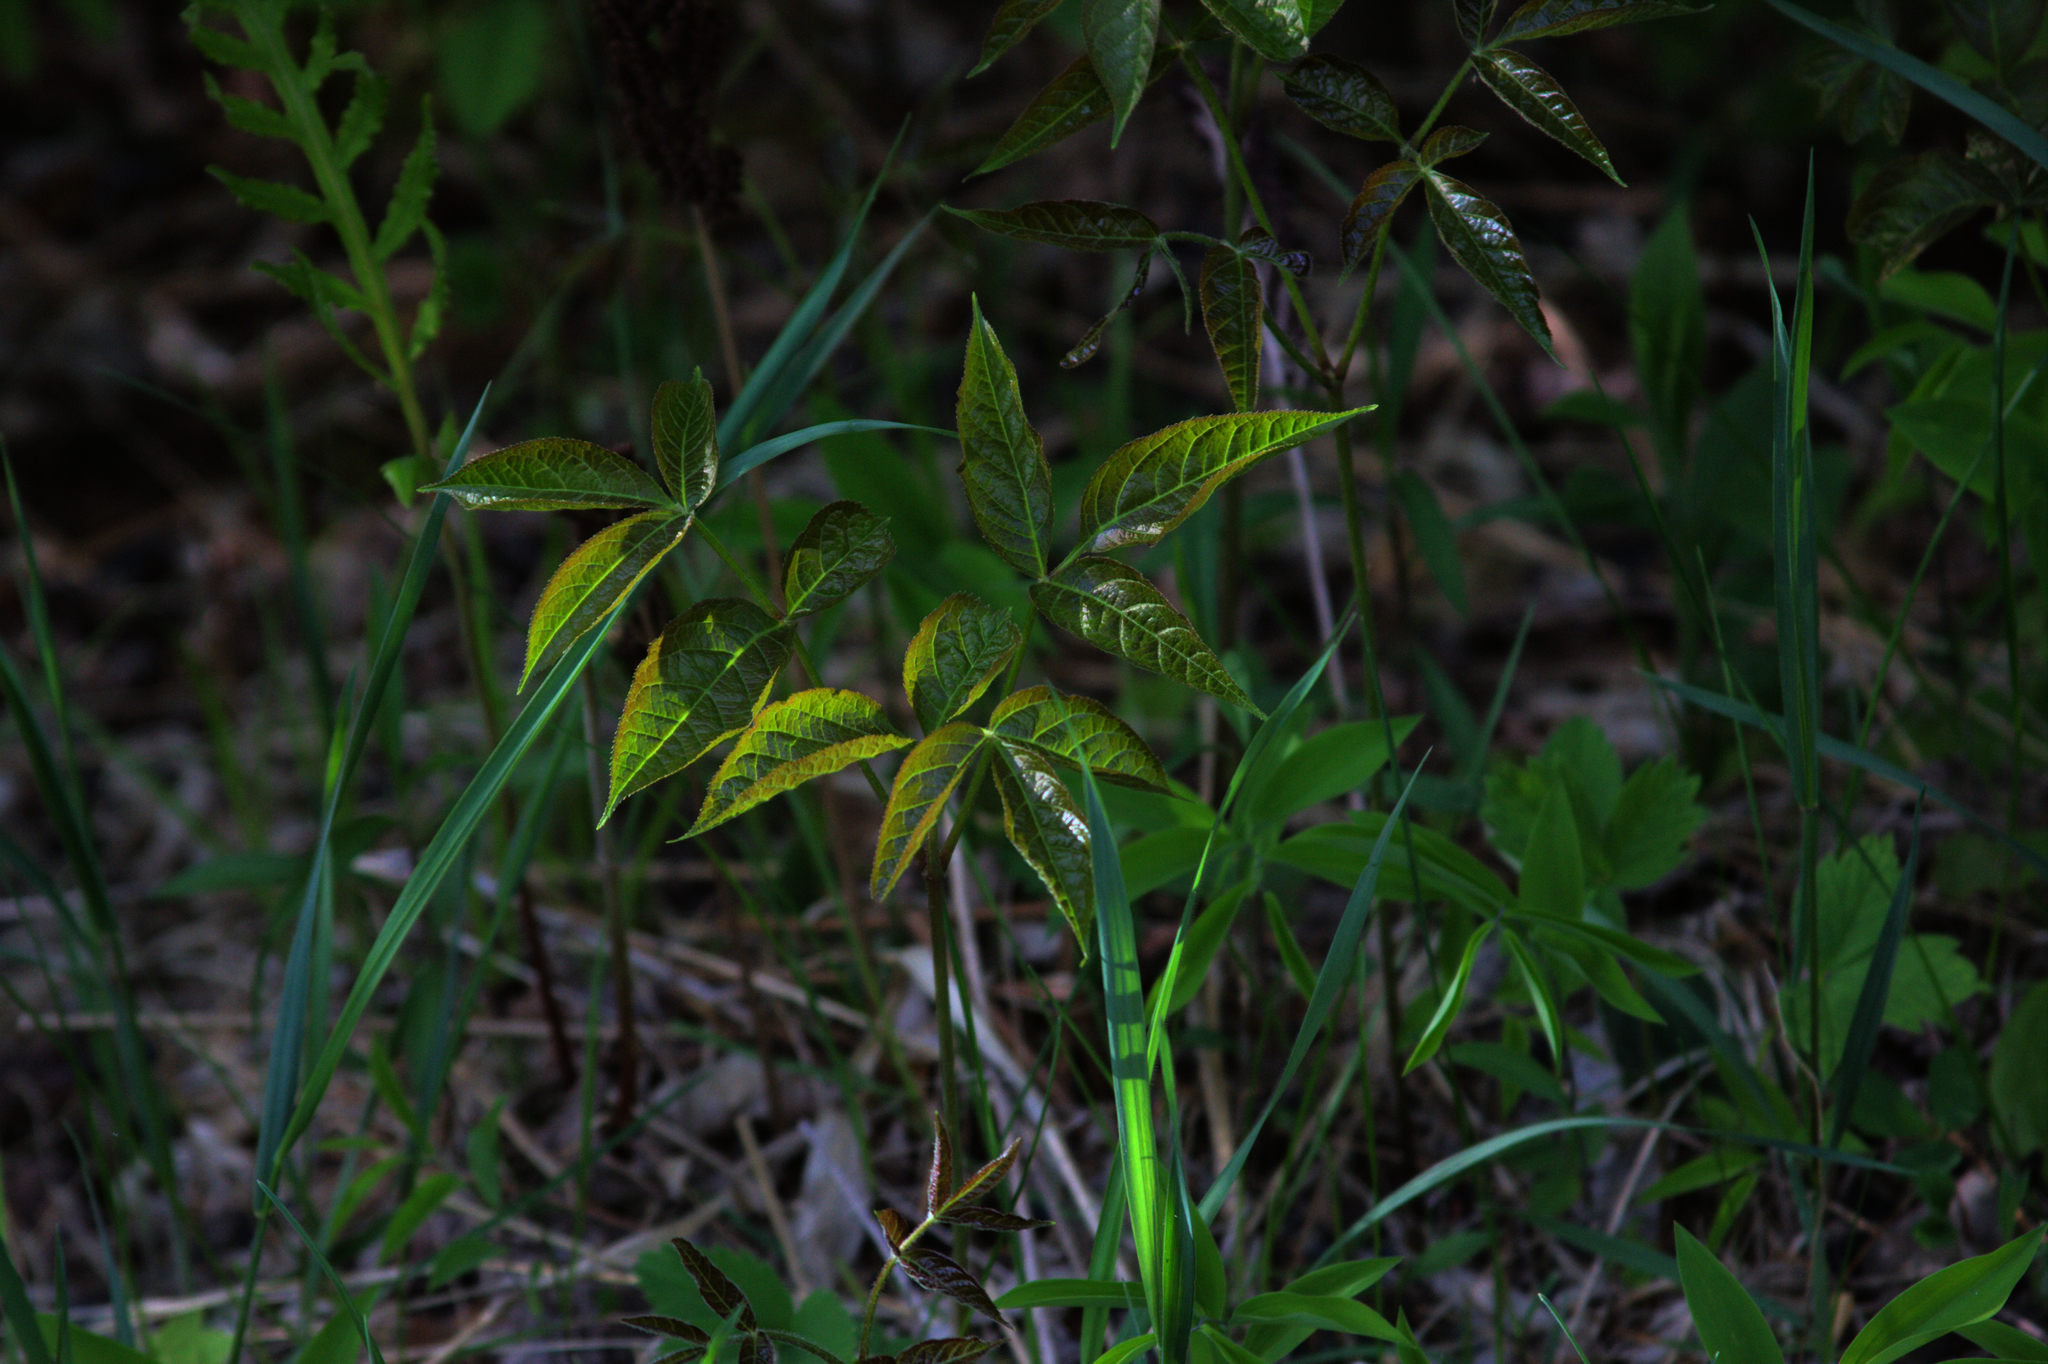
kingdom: Plantae
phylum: Tracheophyta
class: Magnoliopsida
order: Apiales
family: Araliaceae
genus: Aralia
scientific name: Aralia nudicaulis
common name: Wild sarsaparilla
